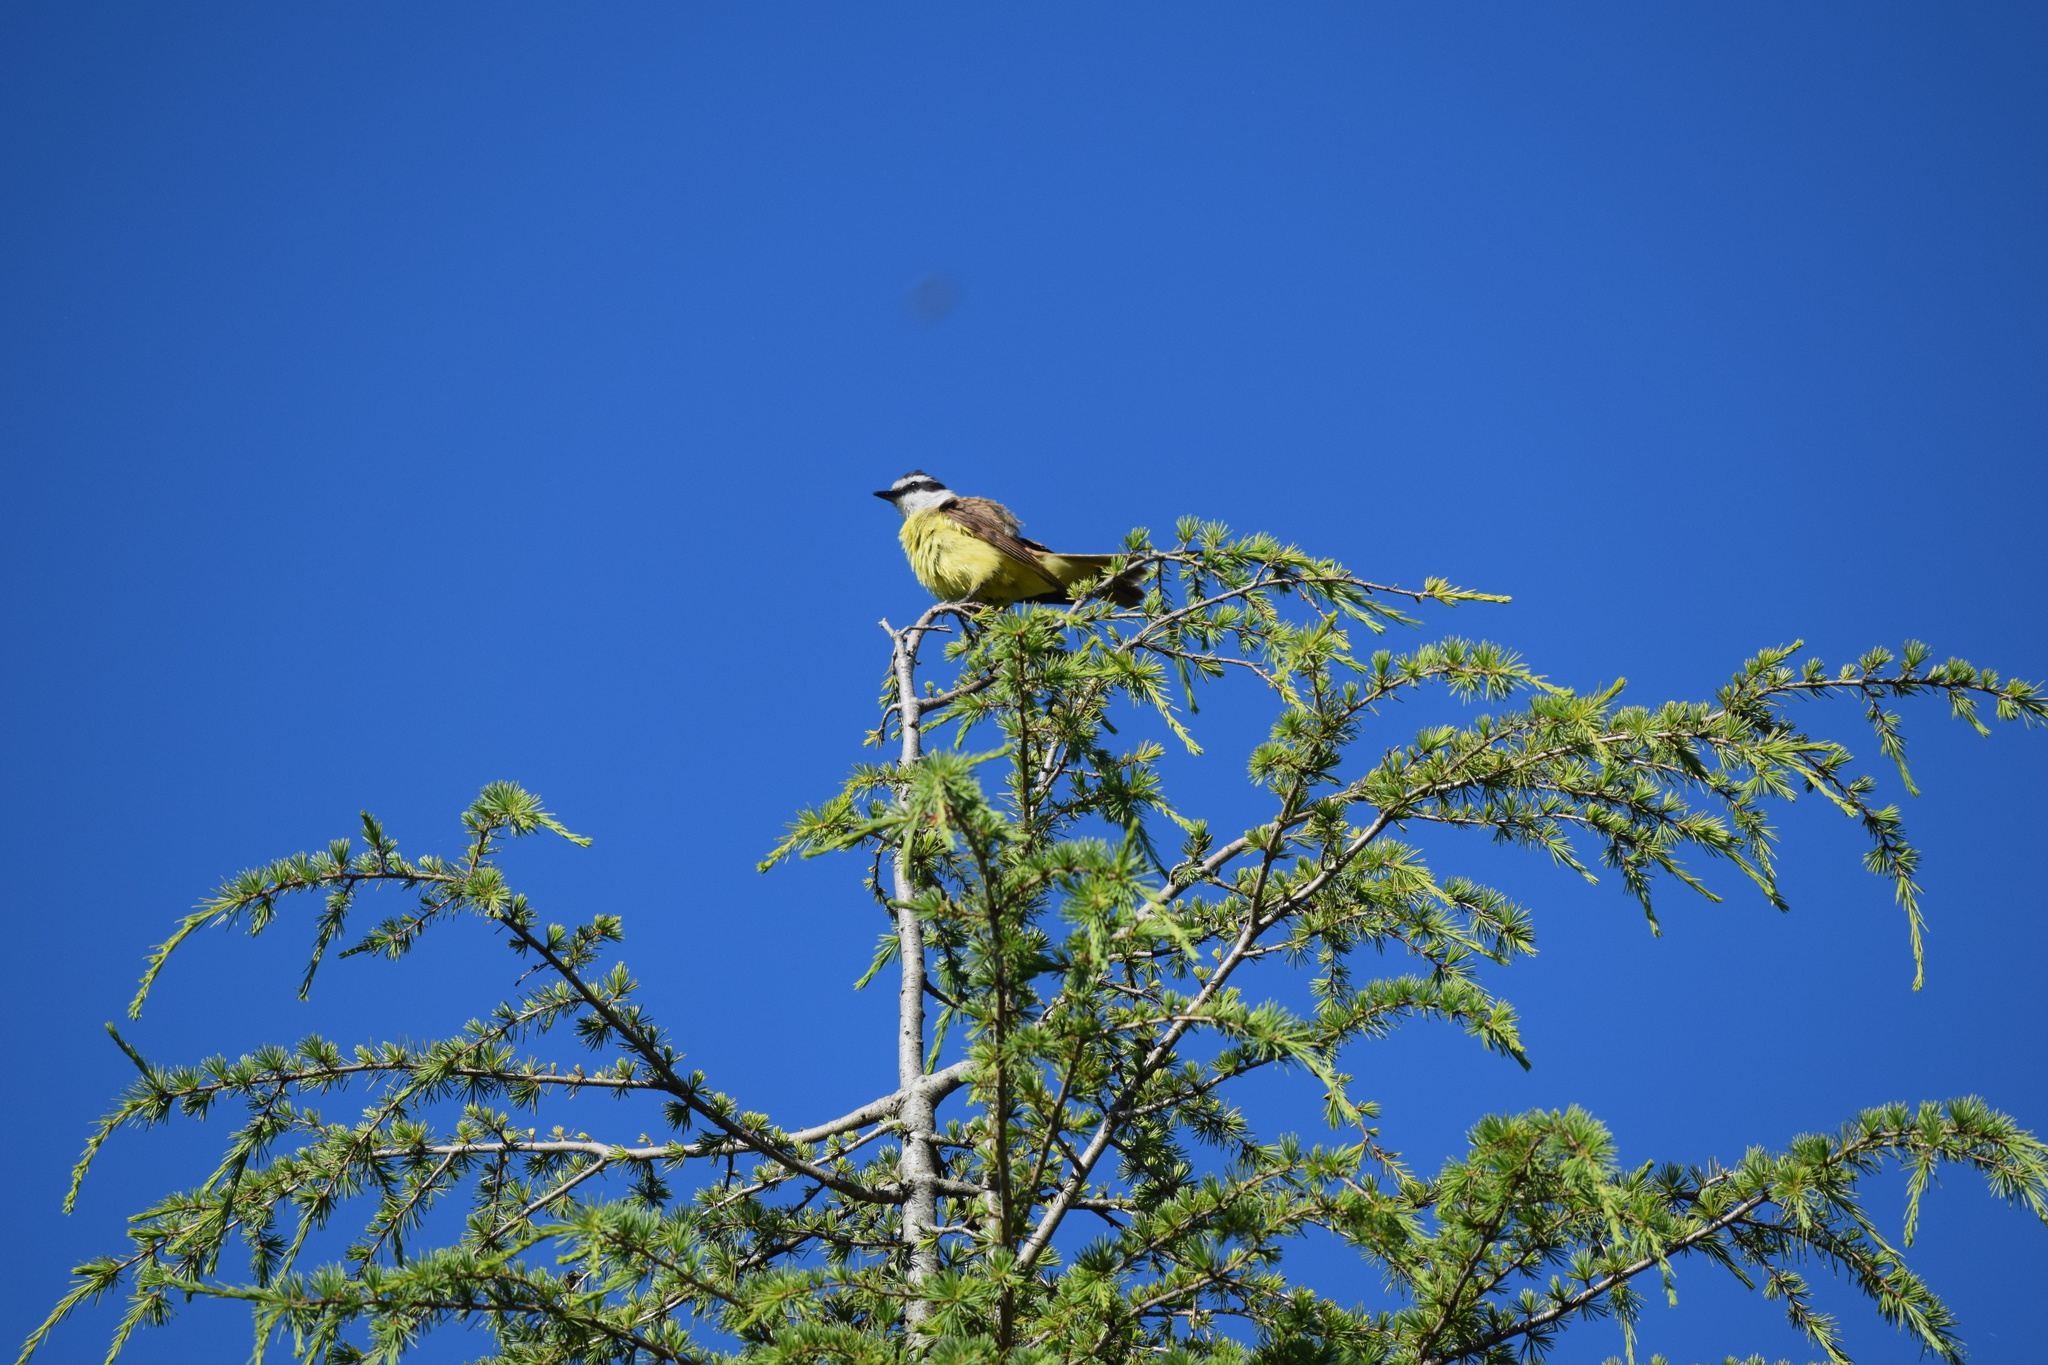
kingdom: Animalia
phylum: Chordata
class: Aves
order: Passeriformes
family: Tyrannidae
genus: Pitangus
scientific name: Pitangus sulphuratus
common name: Great kiskadee
